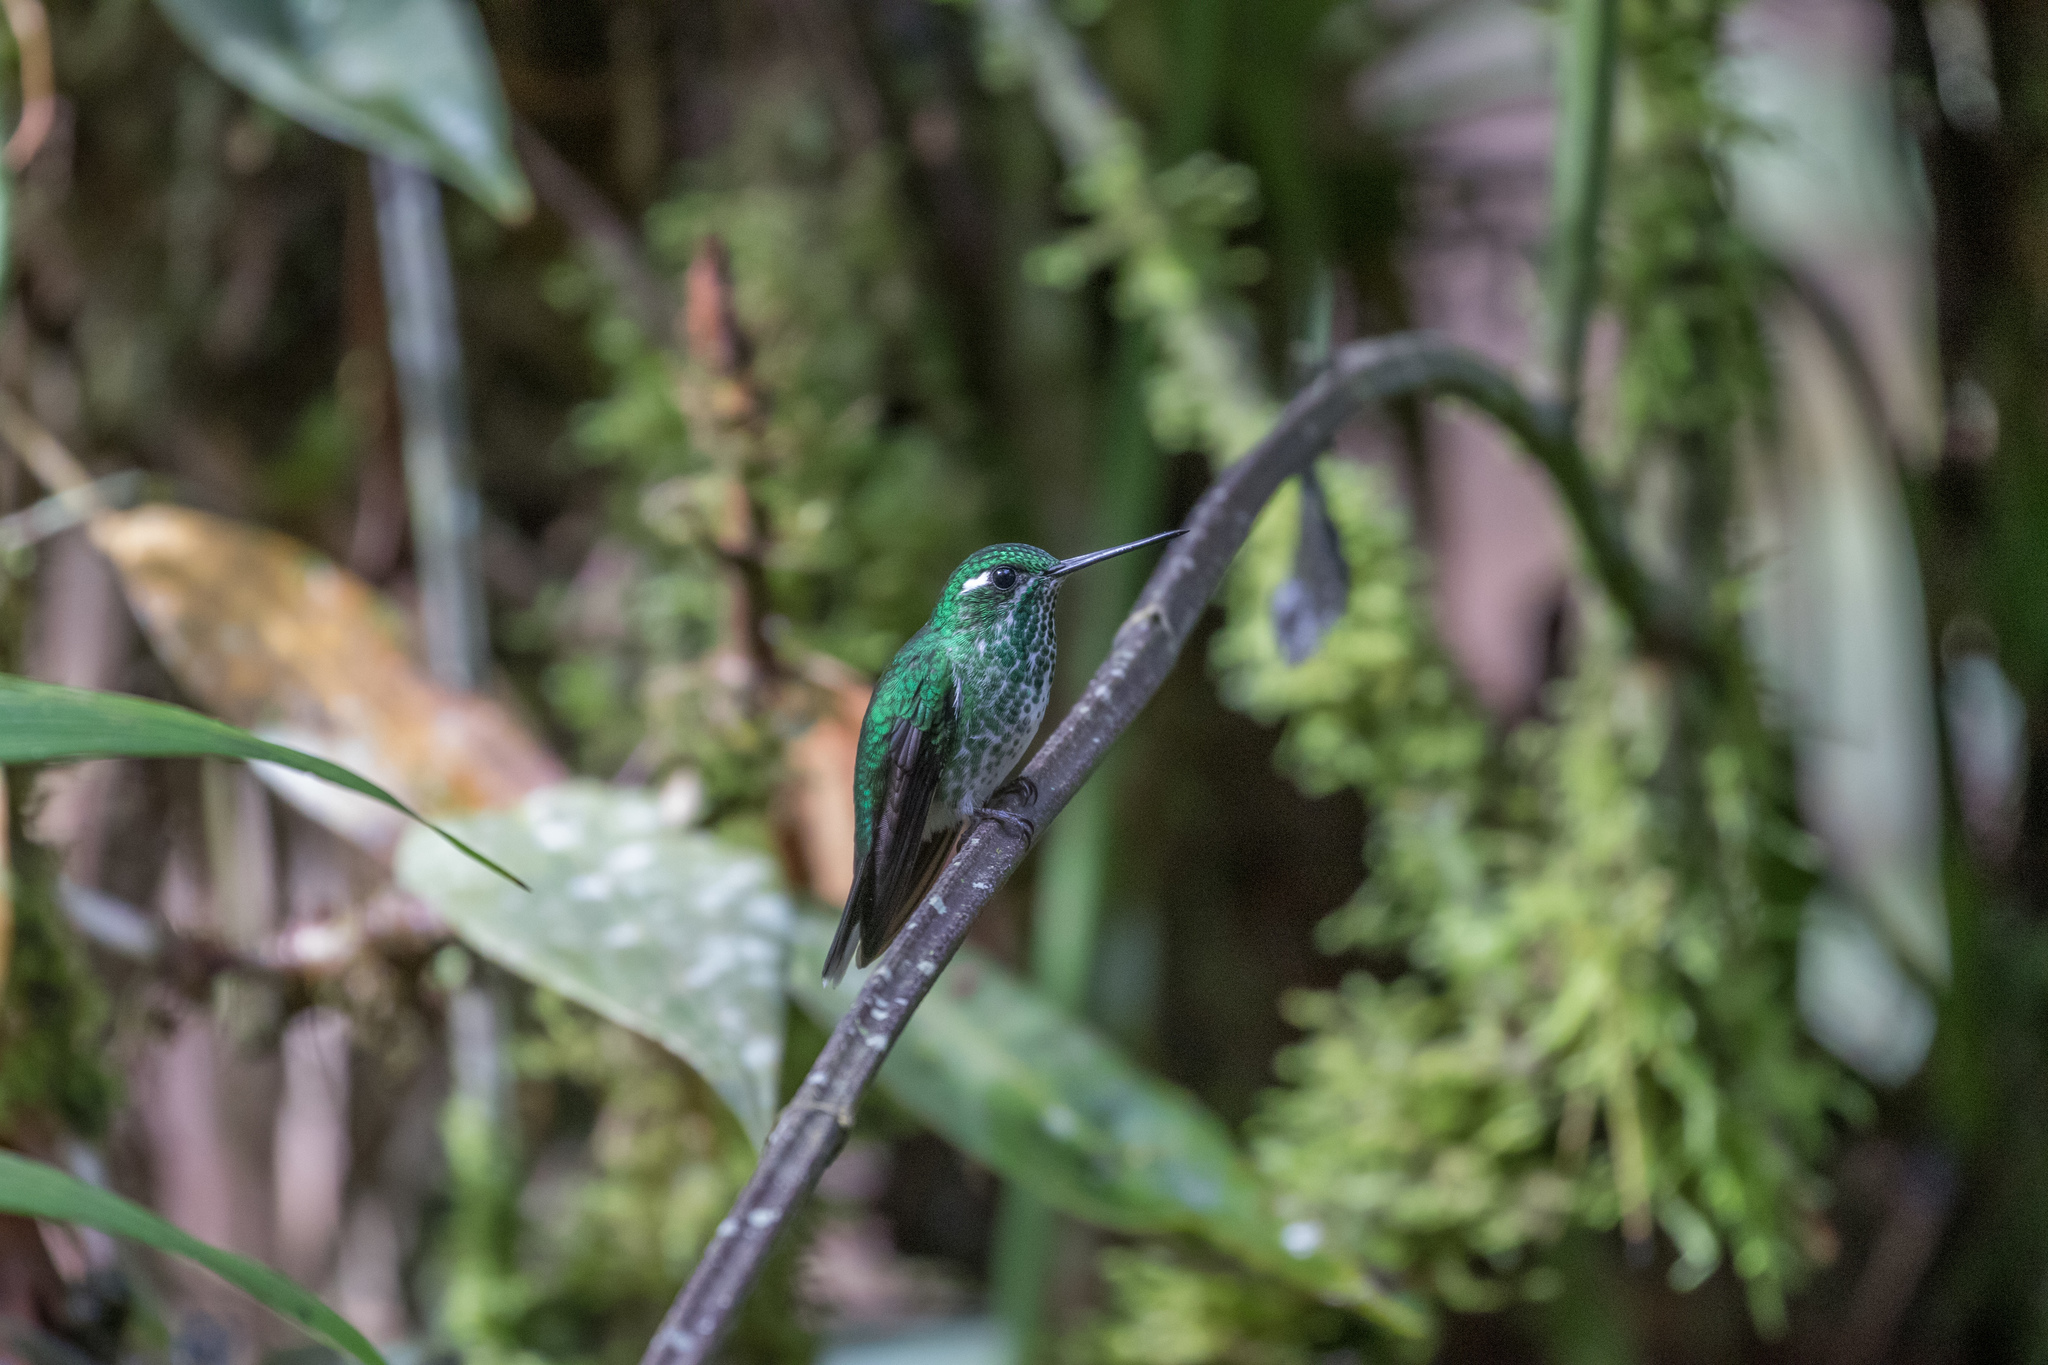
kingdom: Animalia
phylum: Chordata
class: Aves
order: Apodiformes
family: Trochilidae
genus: Urosticte
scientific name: Urosticte benjamini
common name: Purple-bibbed whitetip
